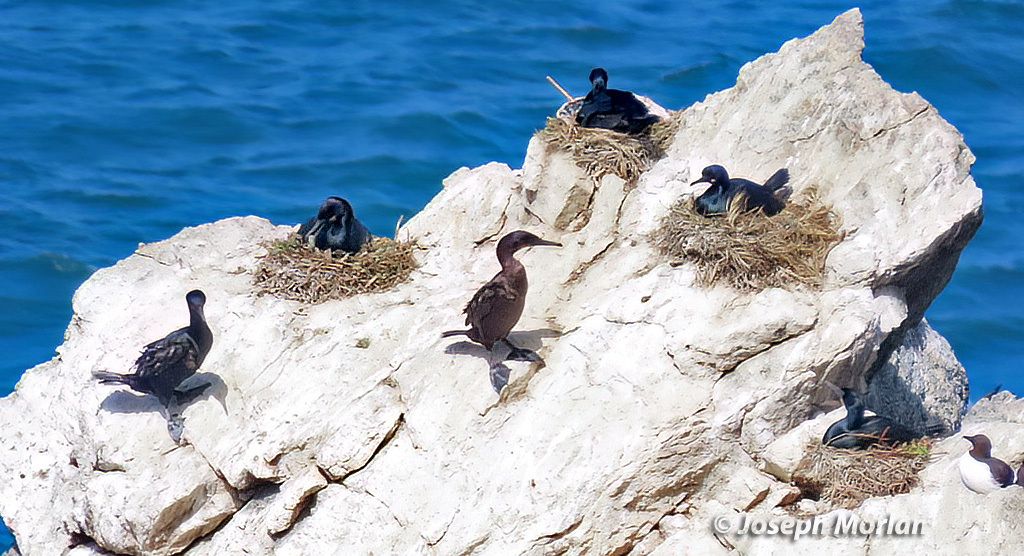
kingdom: Animalia
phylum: Chordata
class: Aves
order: Suliformes
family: Phalacrocoracidae
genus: Urile
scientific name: Urile penicillatus
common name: Brandt's cormorant
